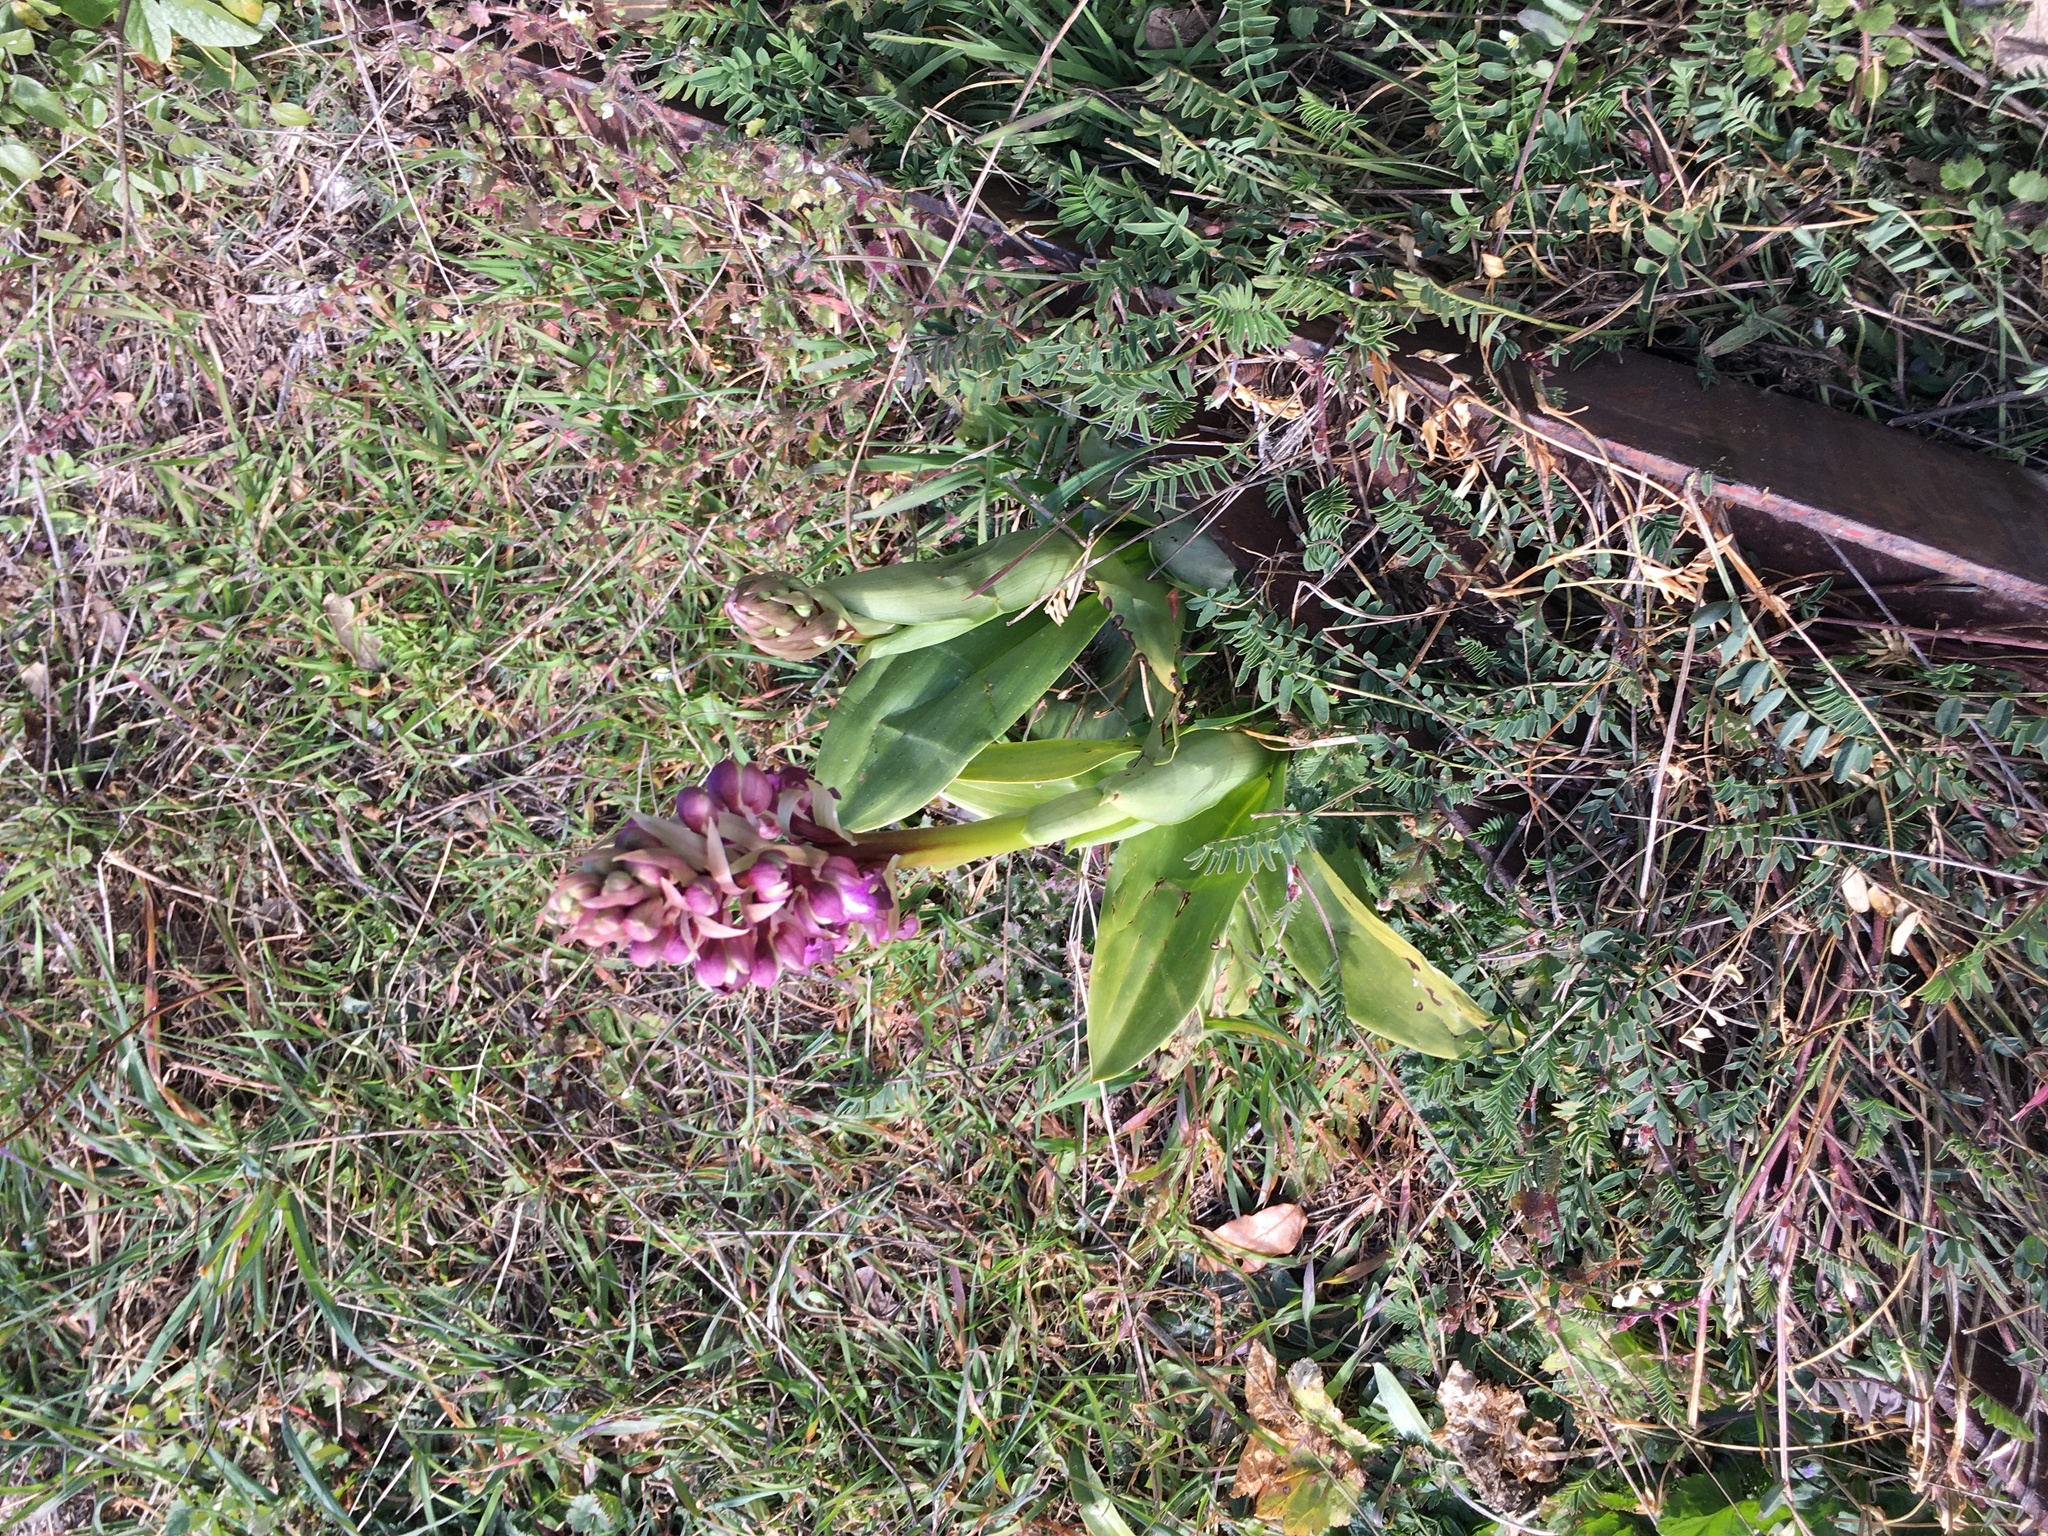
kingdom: Plantae
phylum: Tracheophyta
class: Liliopsida
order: Asparagales
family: Orchidaceae
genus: Himantoglossum
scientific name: Himantoglossum robertianum
